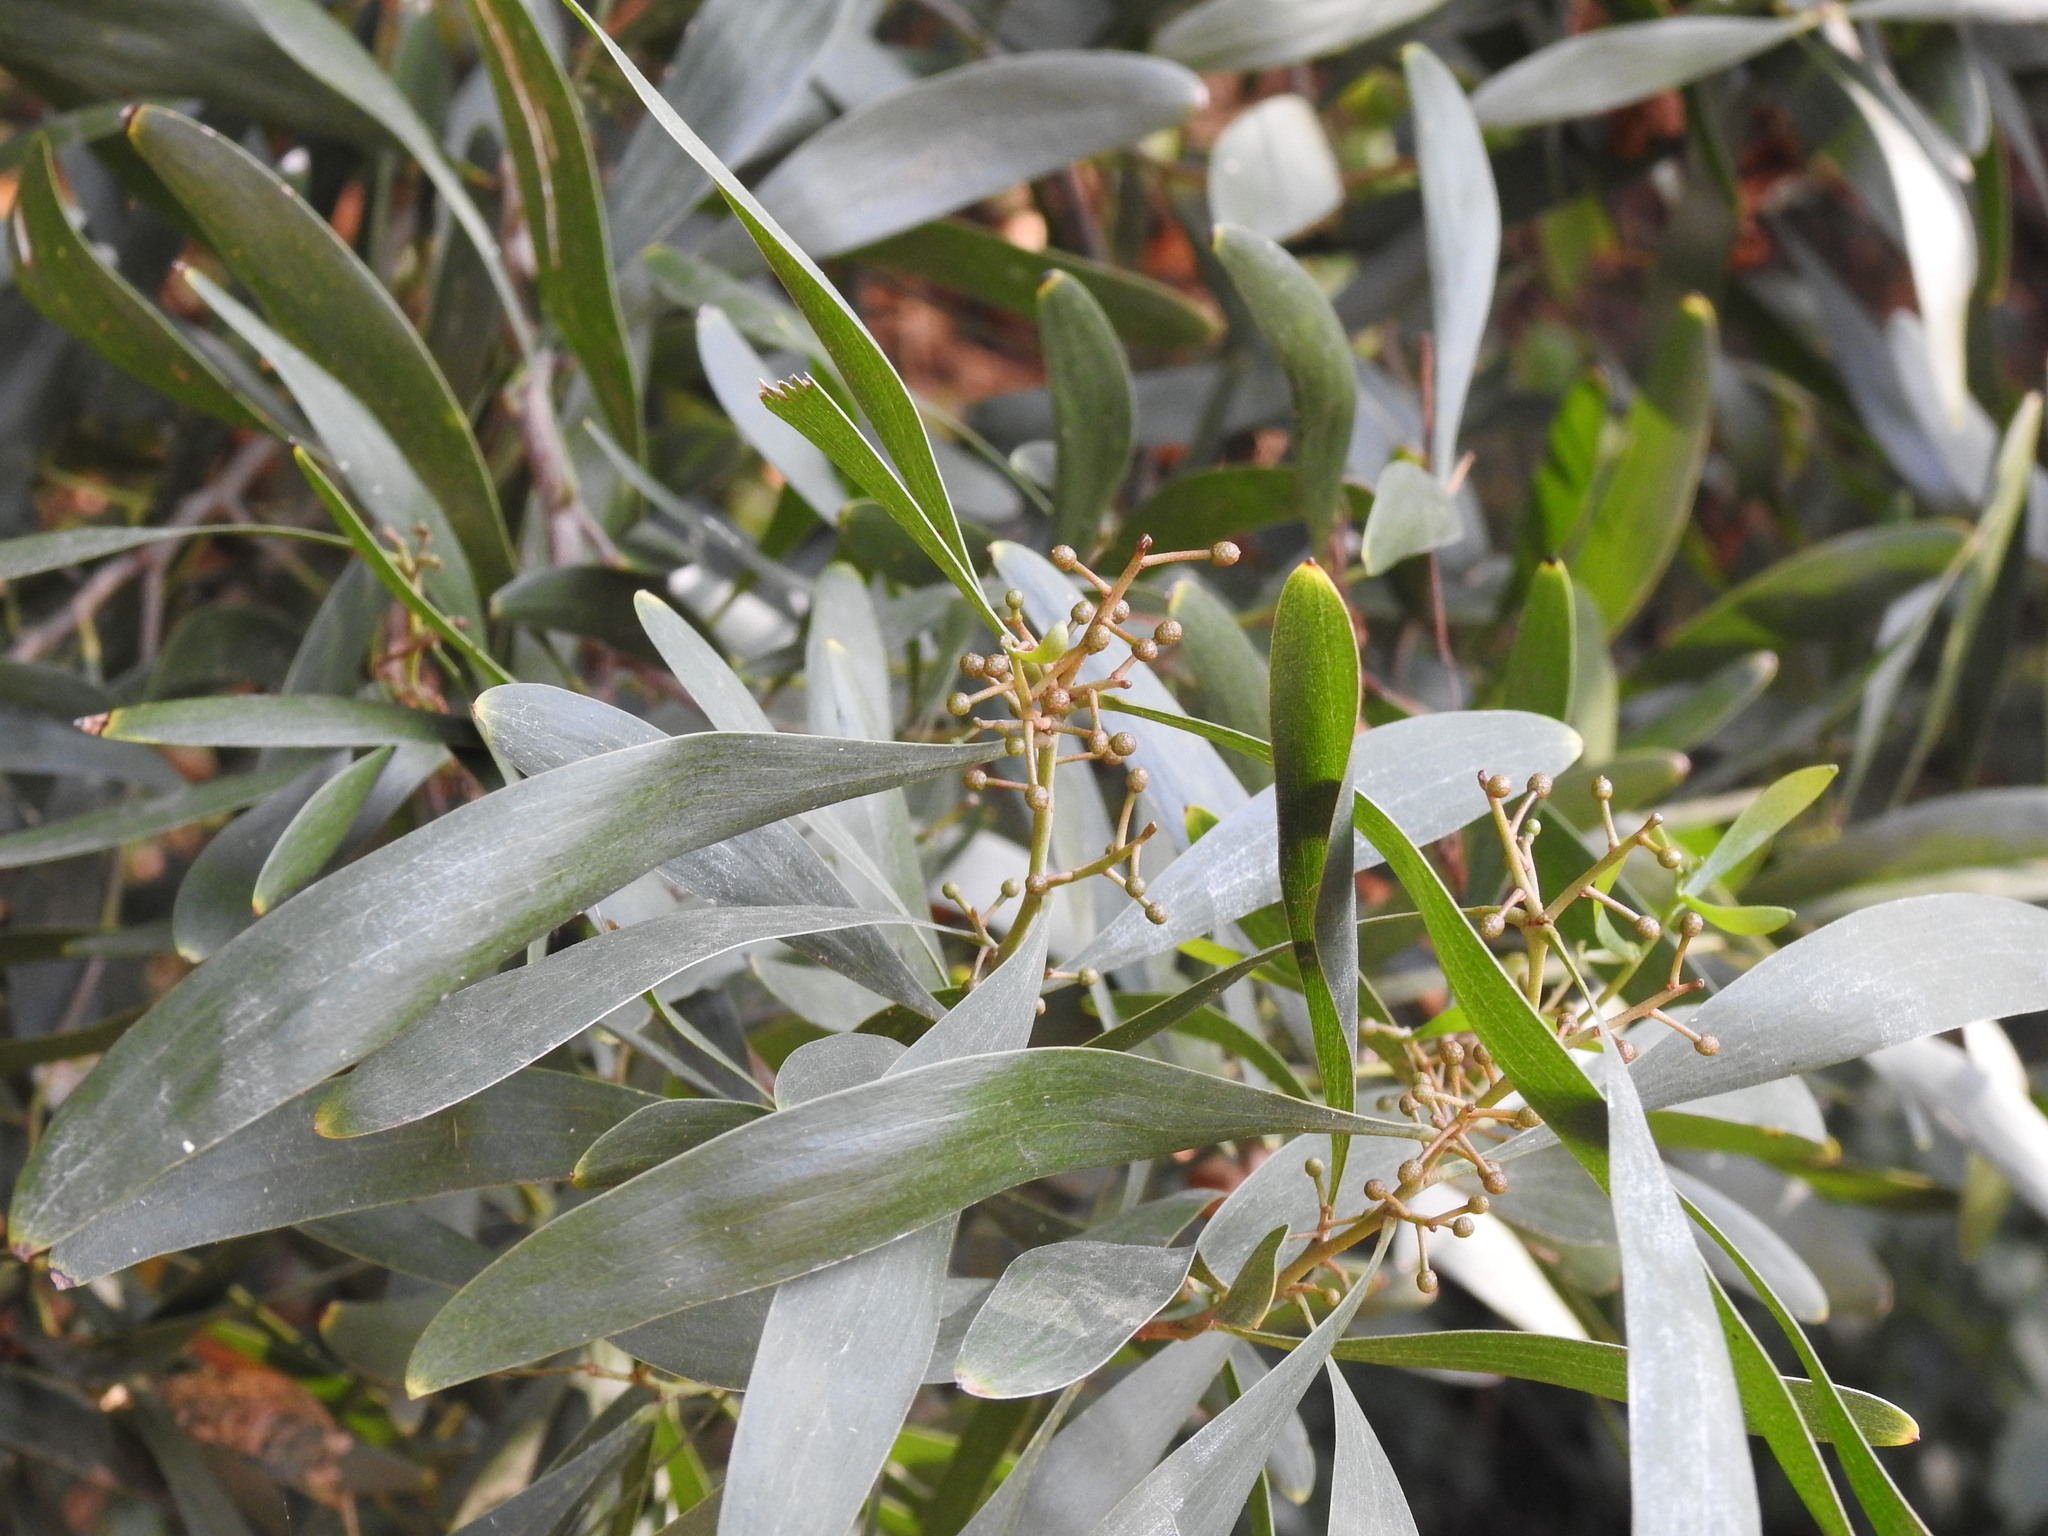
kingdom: Plantae
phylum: Tracheophyta
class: Magnoliopsida
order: Fabales
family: Fabaceae
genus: Acacia
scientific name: Acacia melanoxylon
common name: Blackwood
